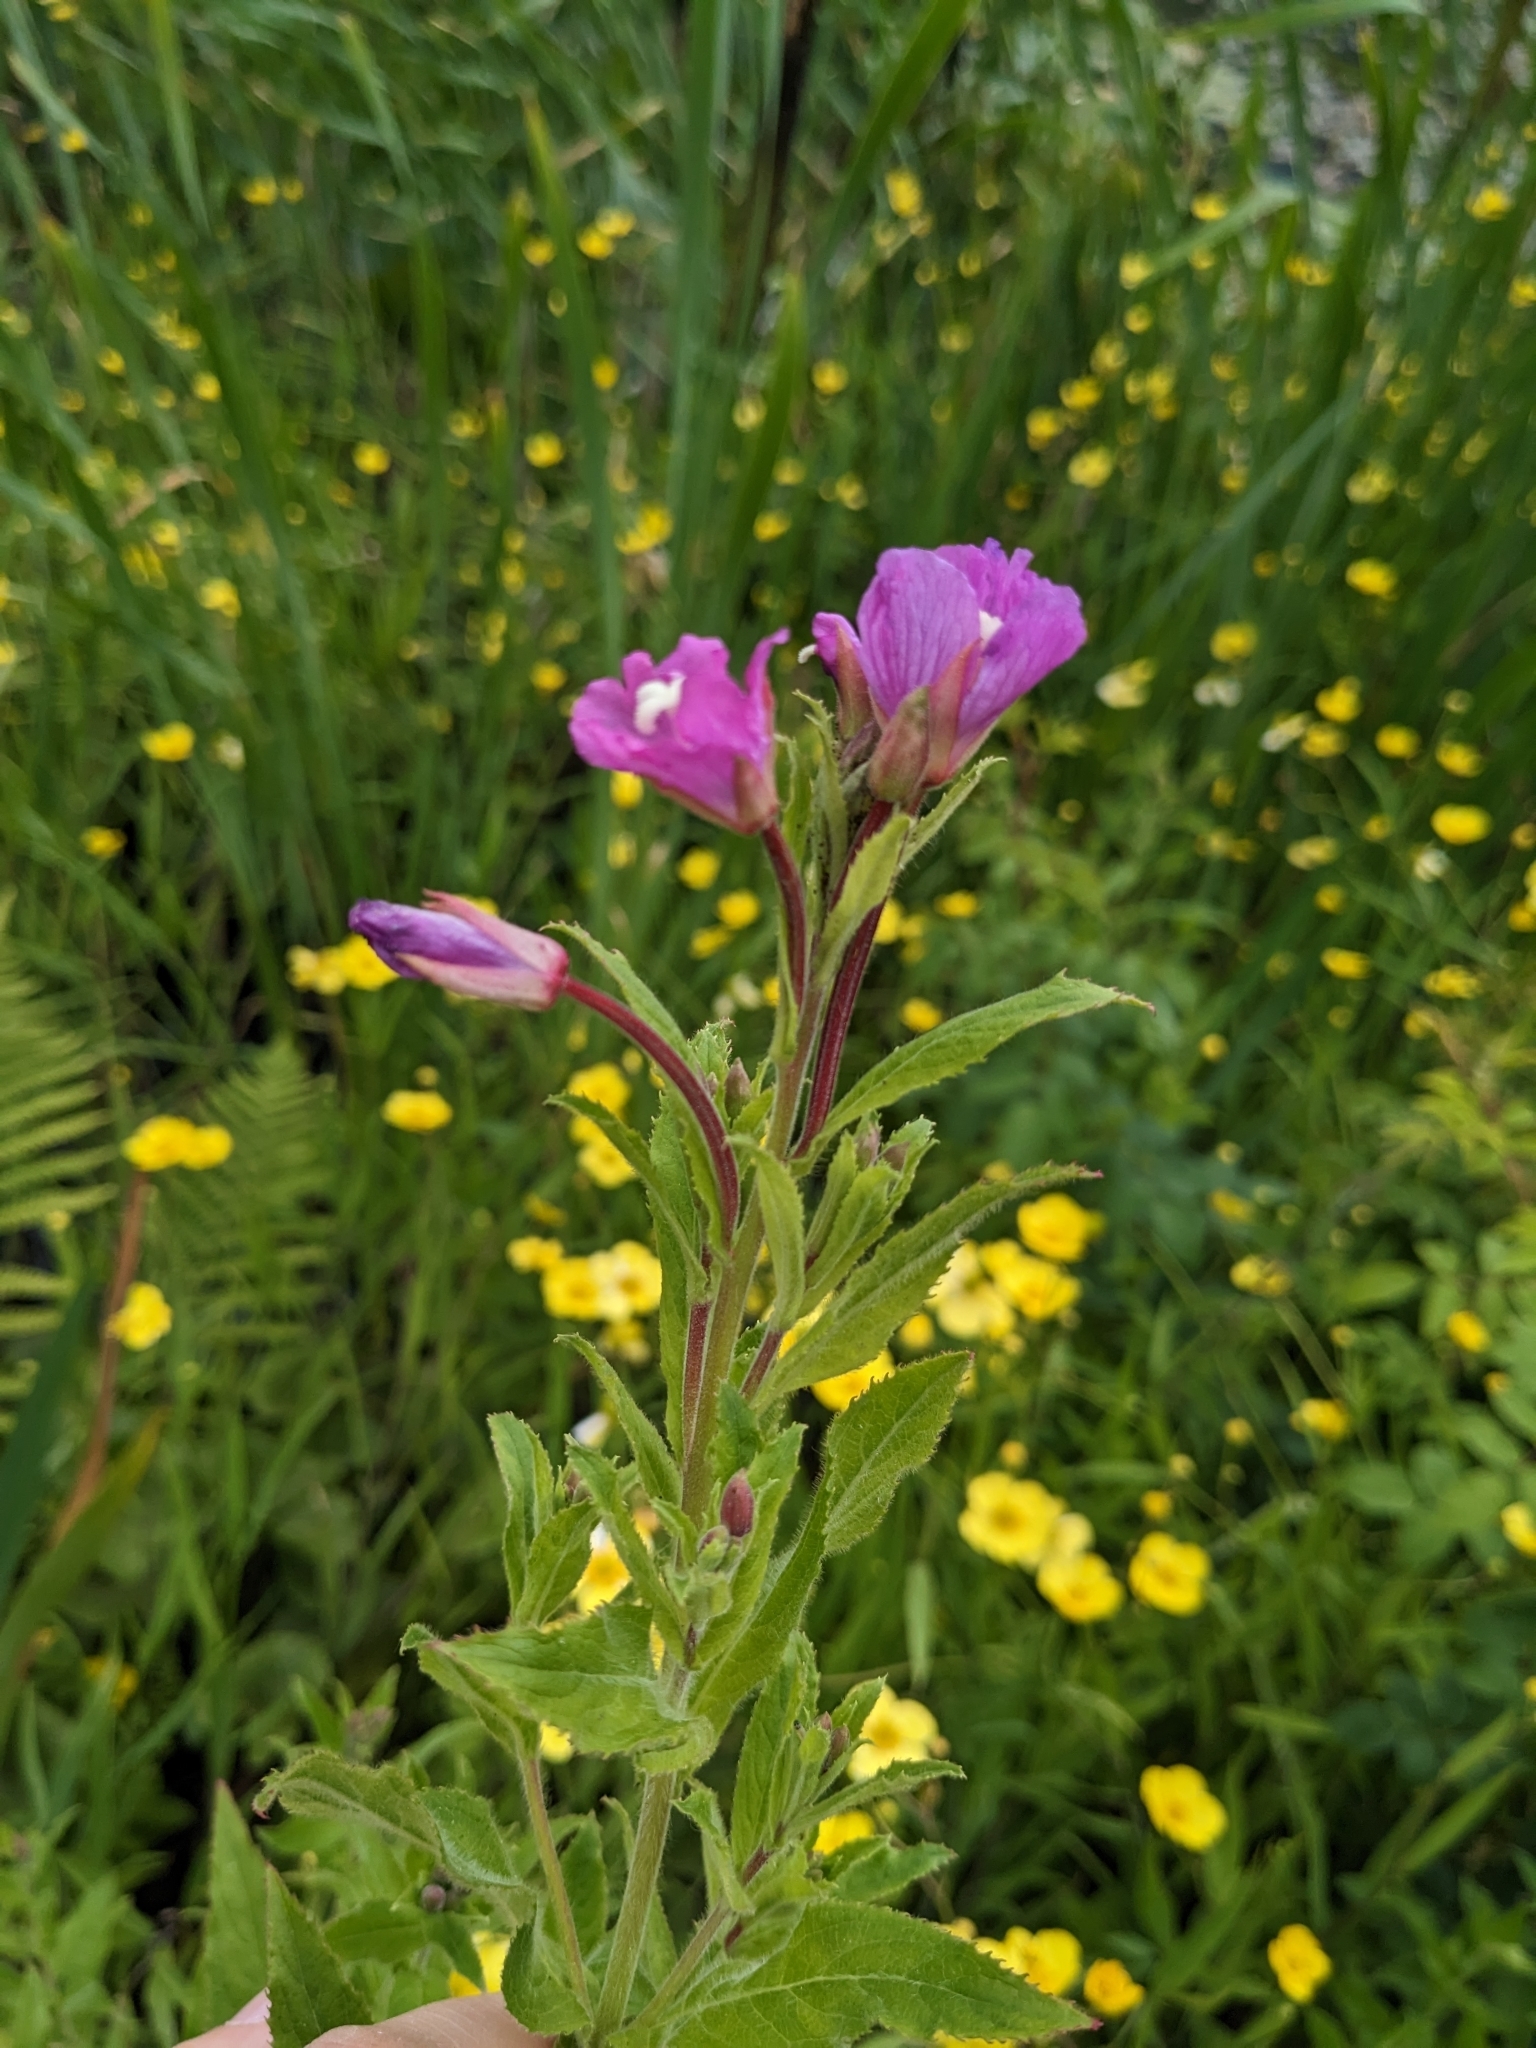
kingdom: Plantae
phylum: Tracheophyta
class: Magnoliopsida
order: Myrtales
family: Onagraceae
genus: Epilobium
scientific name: Epilobium hirsutum
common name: Great willowherb
